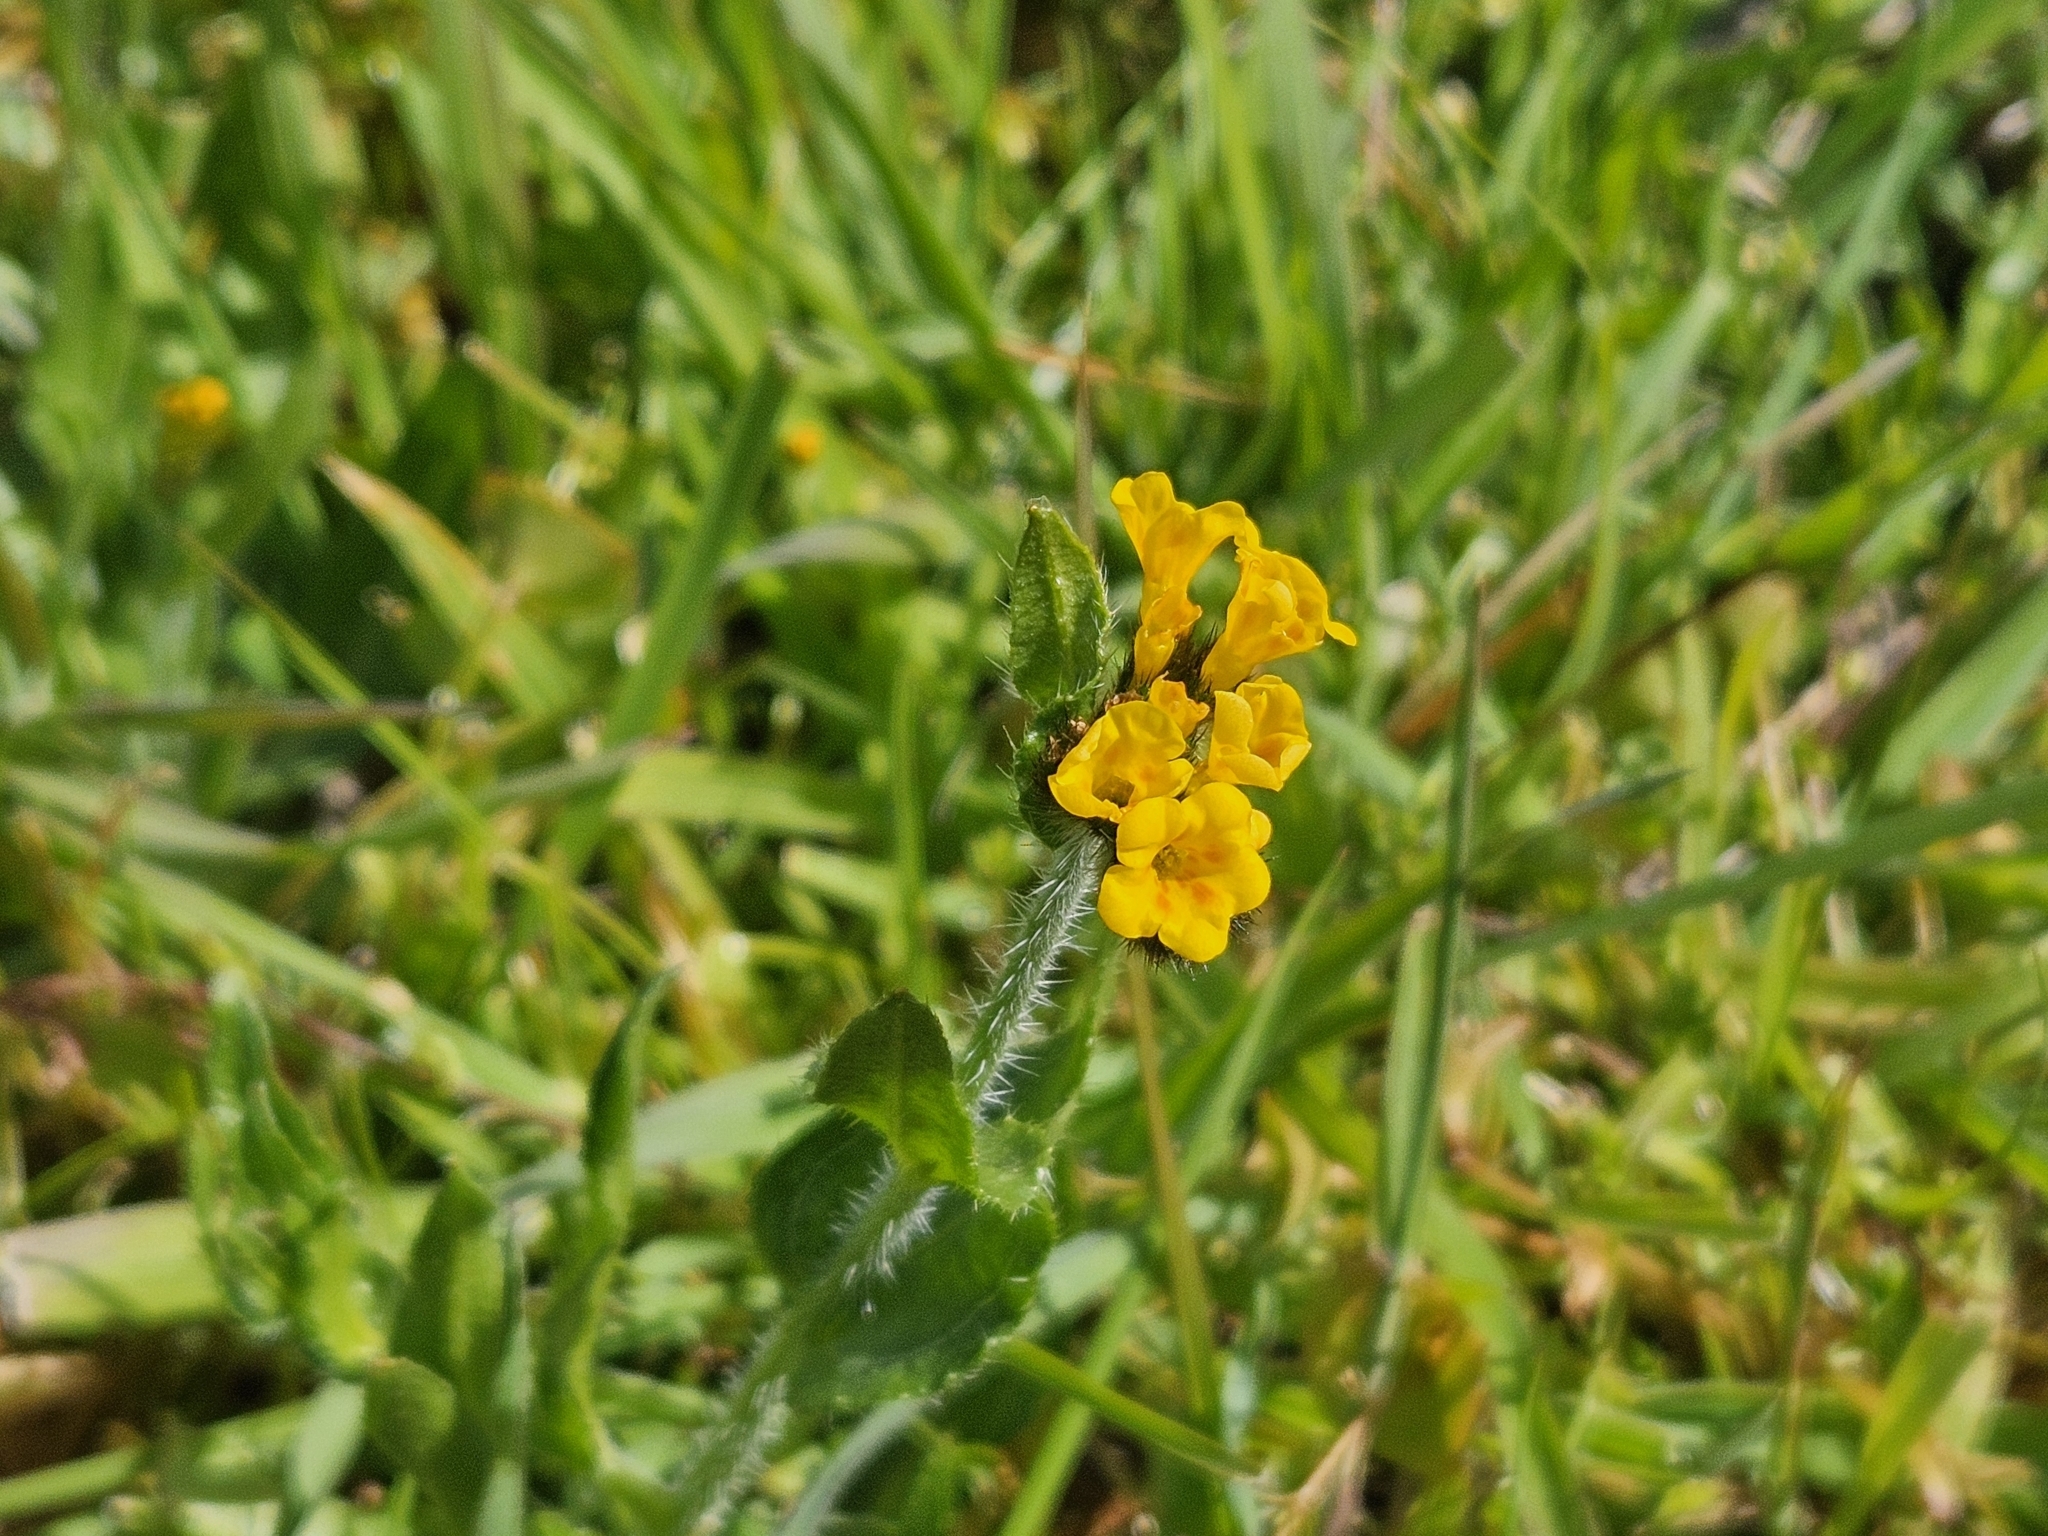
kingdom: Plantae
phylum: Tracheophyta
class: Magnoliopsida
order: Boraginales
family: Boraginaceae
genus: Amsinckia
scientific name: Amsinckia menziesii
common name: Menzies' fiddleneck
